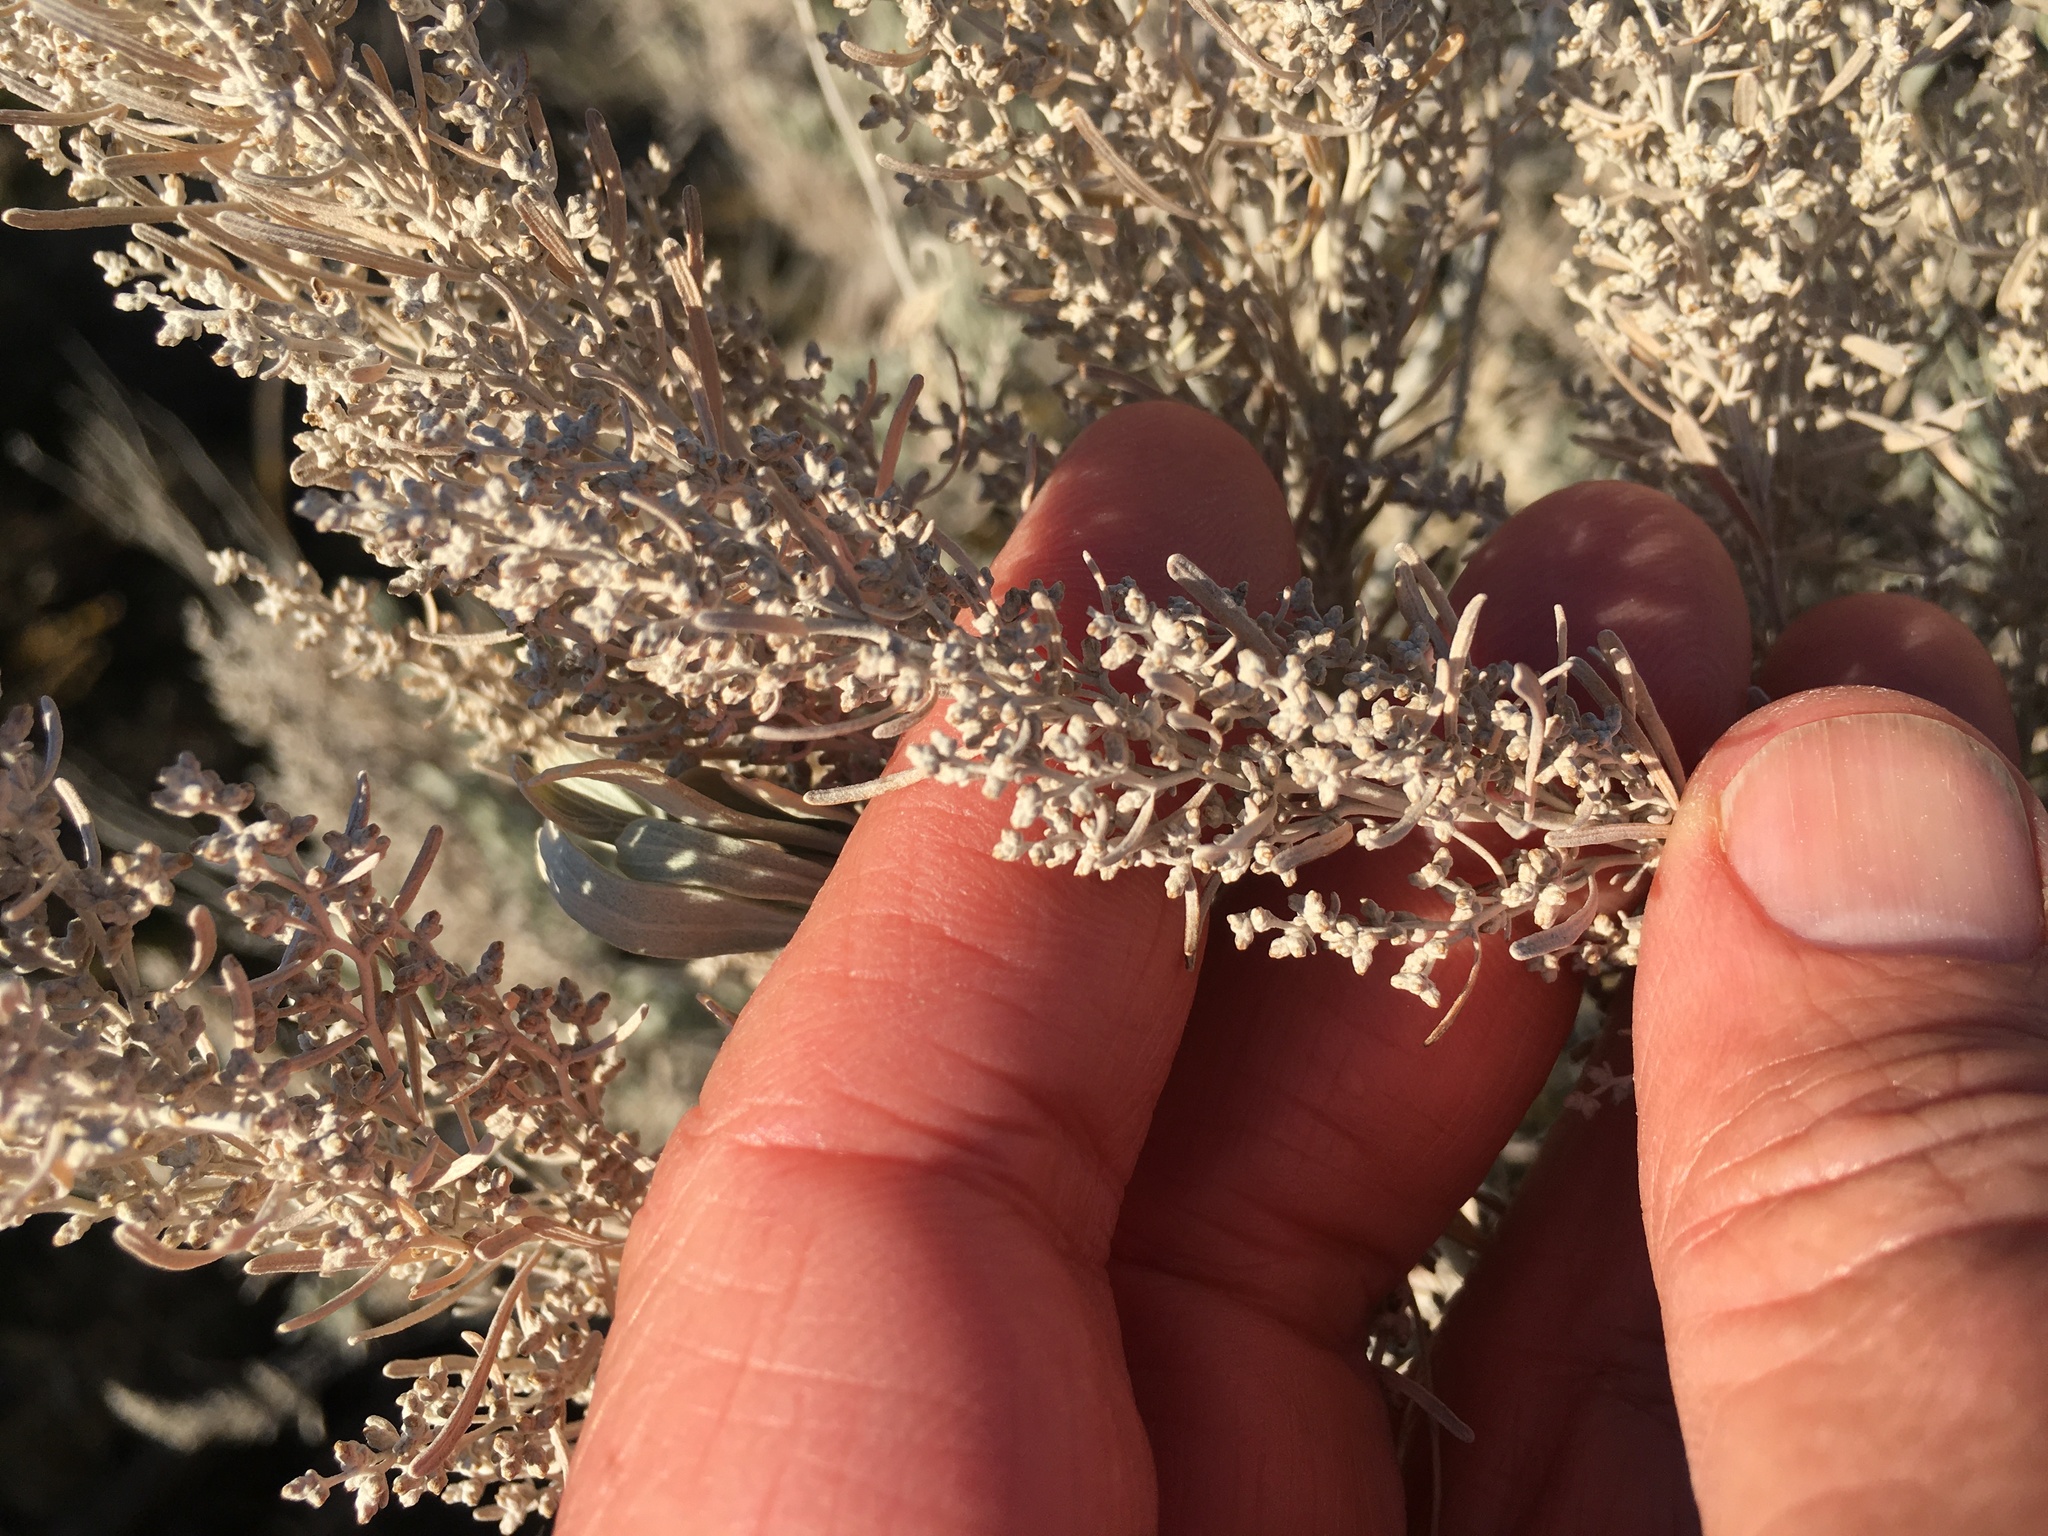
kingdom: Plantae
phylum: Tracheophyta
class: Magnoliopsida
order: Asterales
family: Asteraceae
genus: Artemisia
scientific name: Artemisia tridentata
